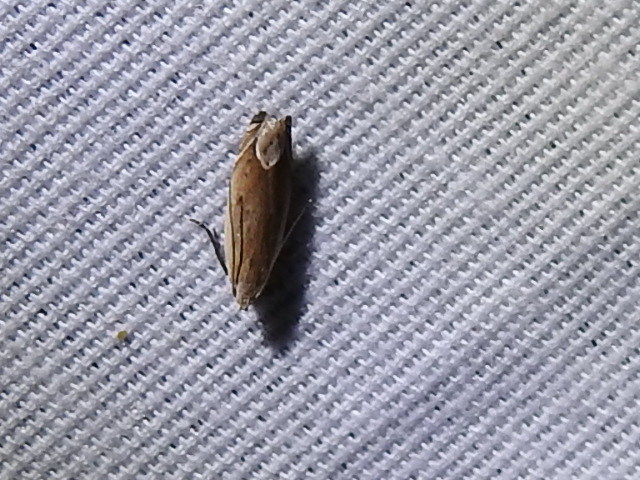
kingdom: Animalia
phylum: Arthropoda
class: Insecta
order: Lepidoptera
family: Gelechiidae
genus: Anacampsis
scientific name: Anacampsis paltodoriella
